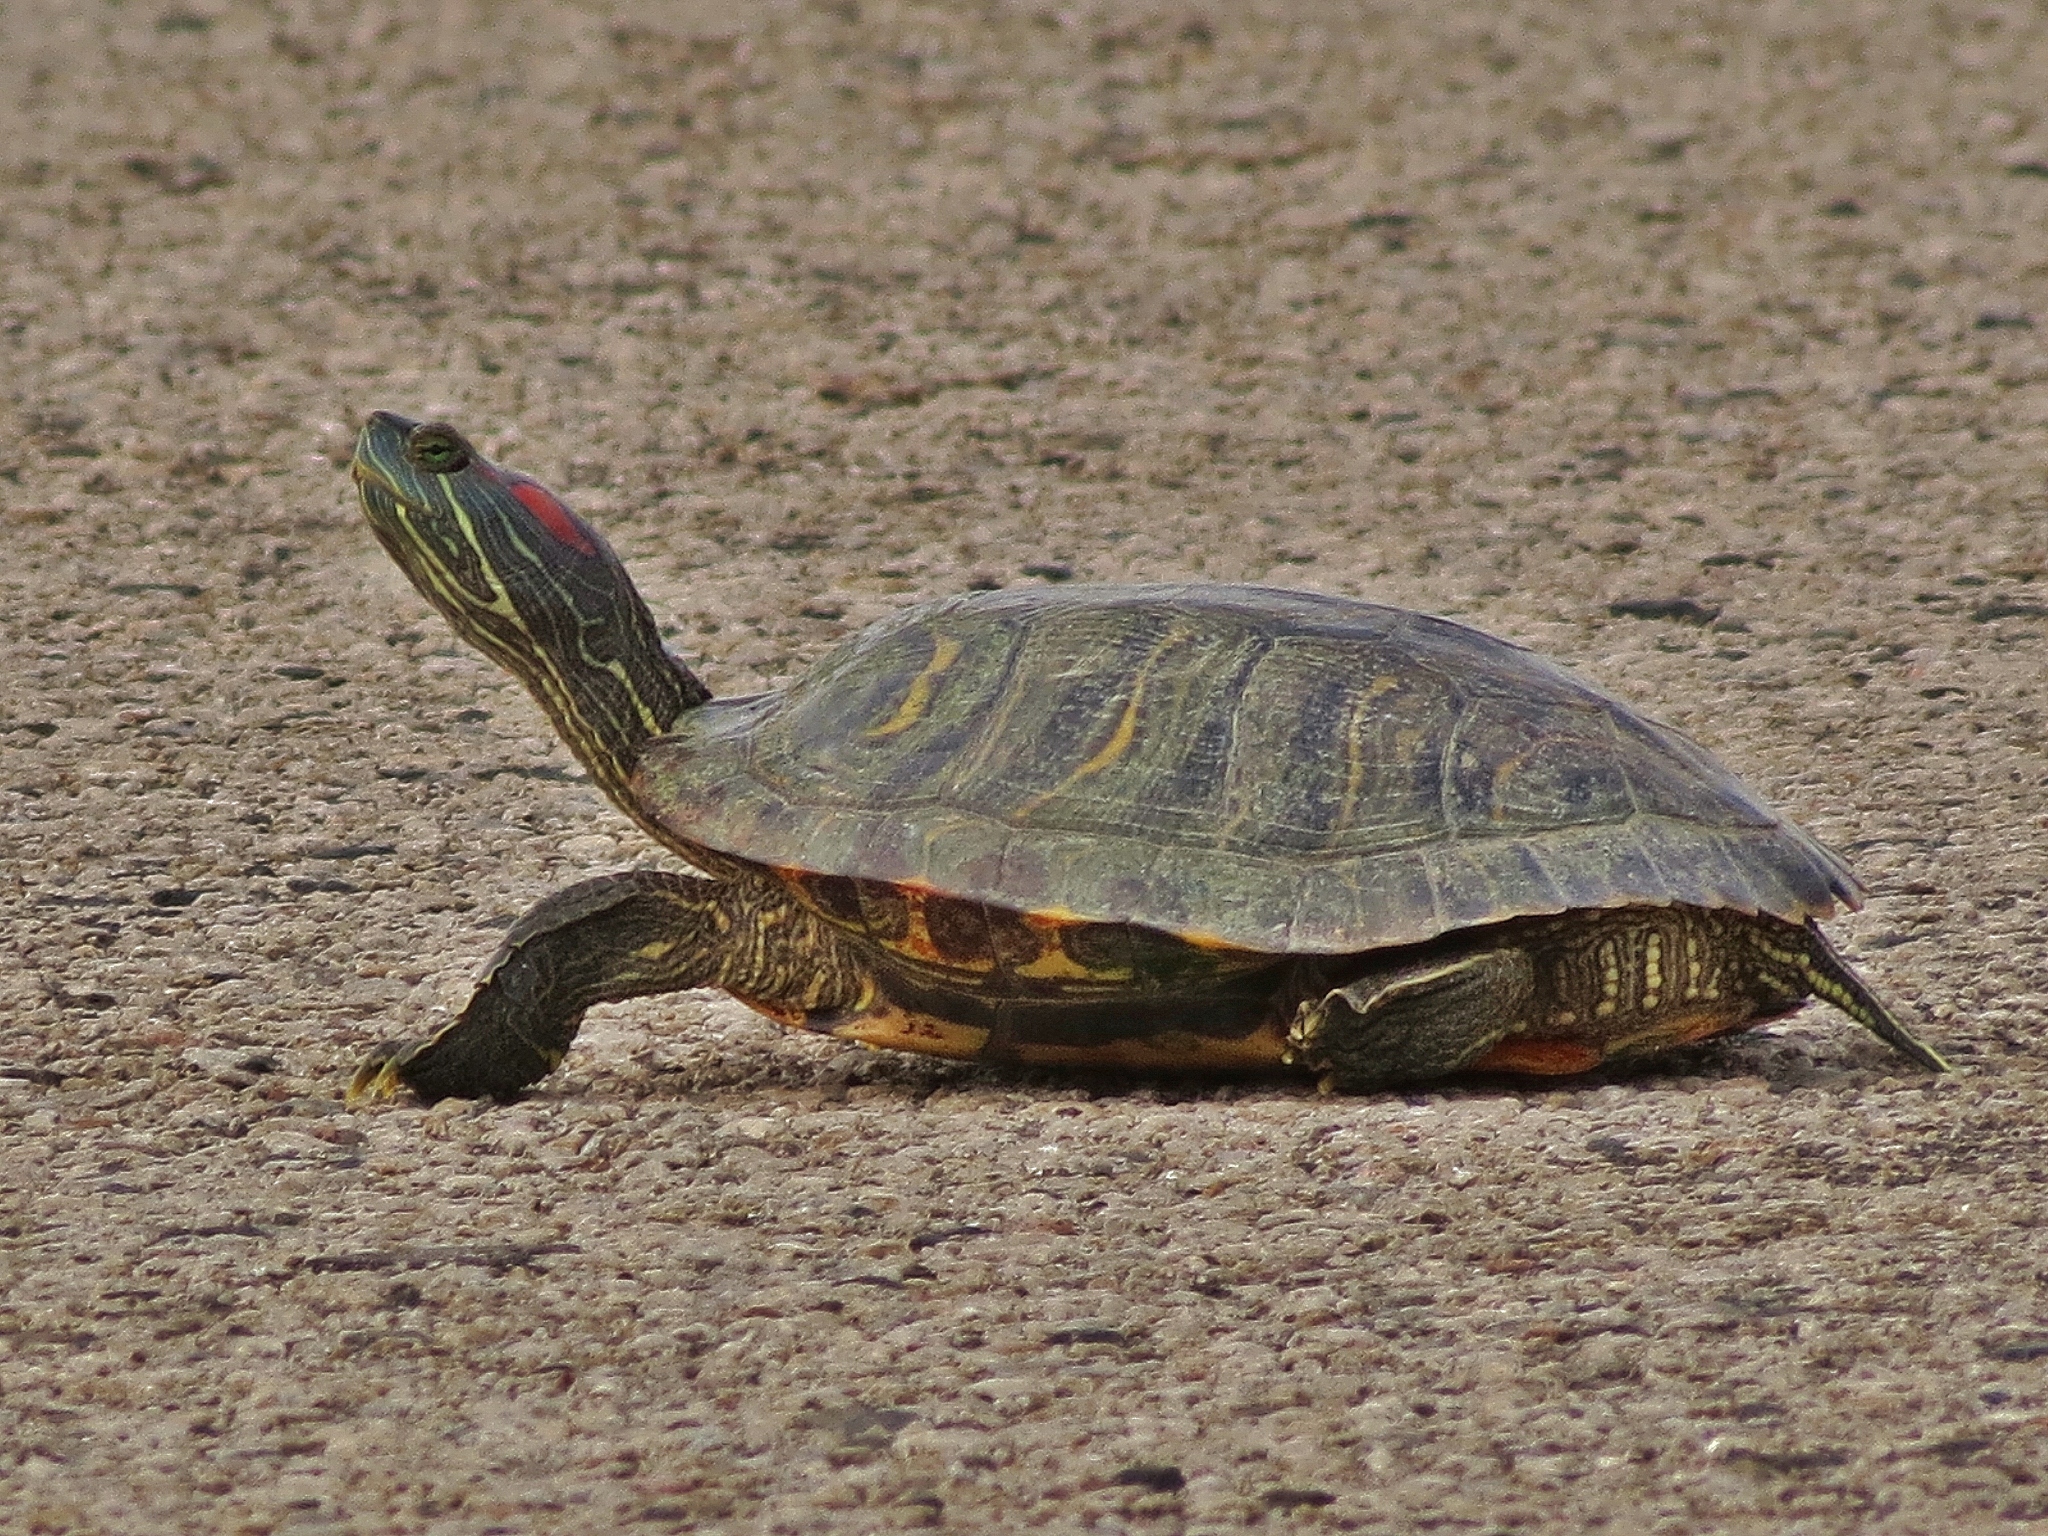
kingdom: Animalia
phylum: Chordata
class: Testudines
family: Emydidae
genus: Trachemys
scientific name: Trachemys scripta
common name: Slider
